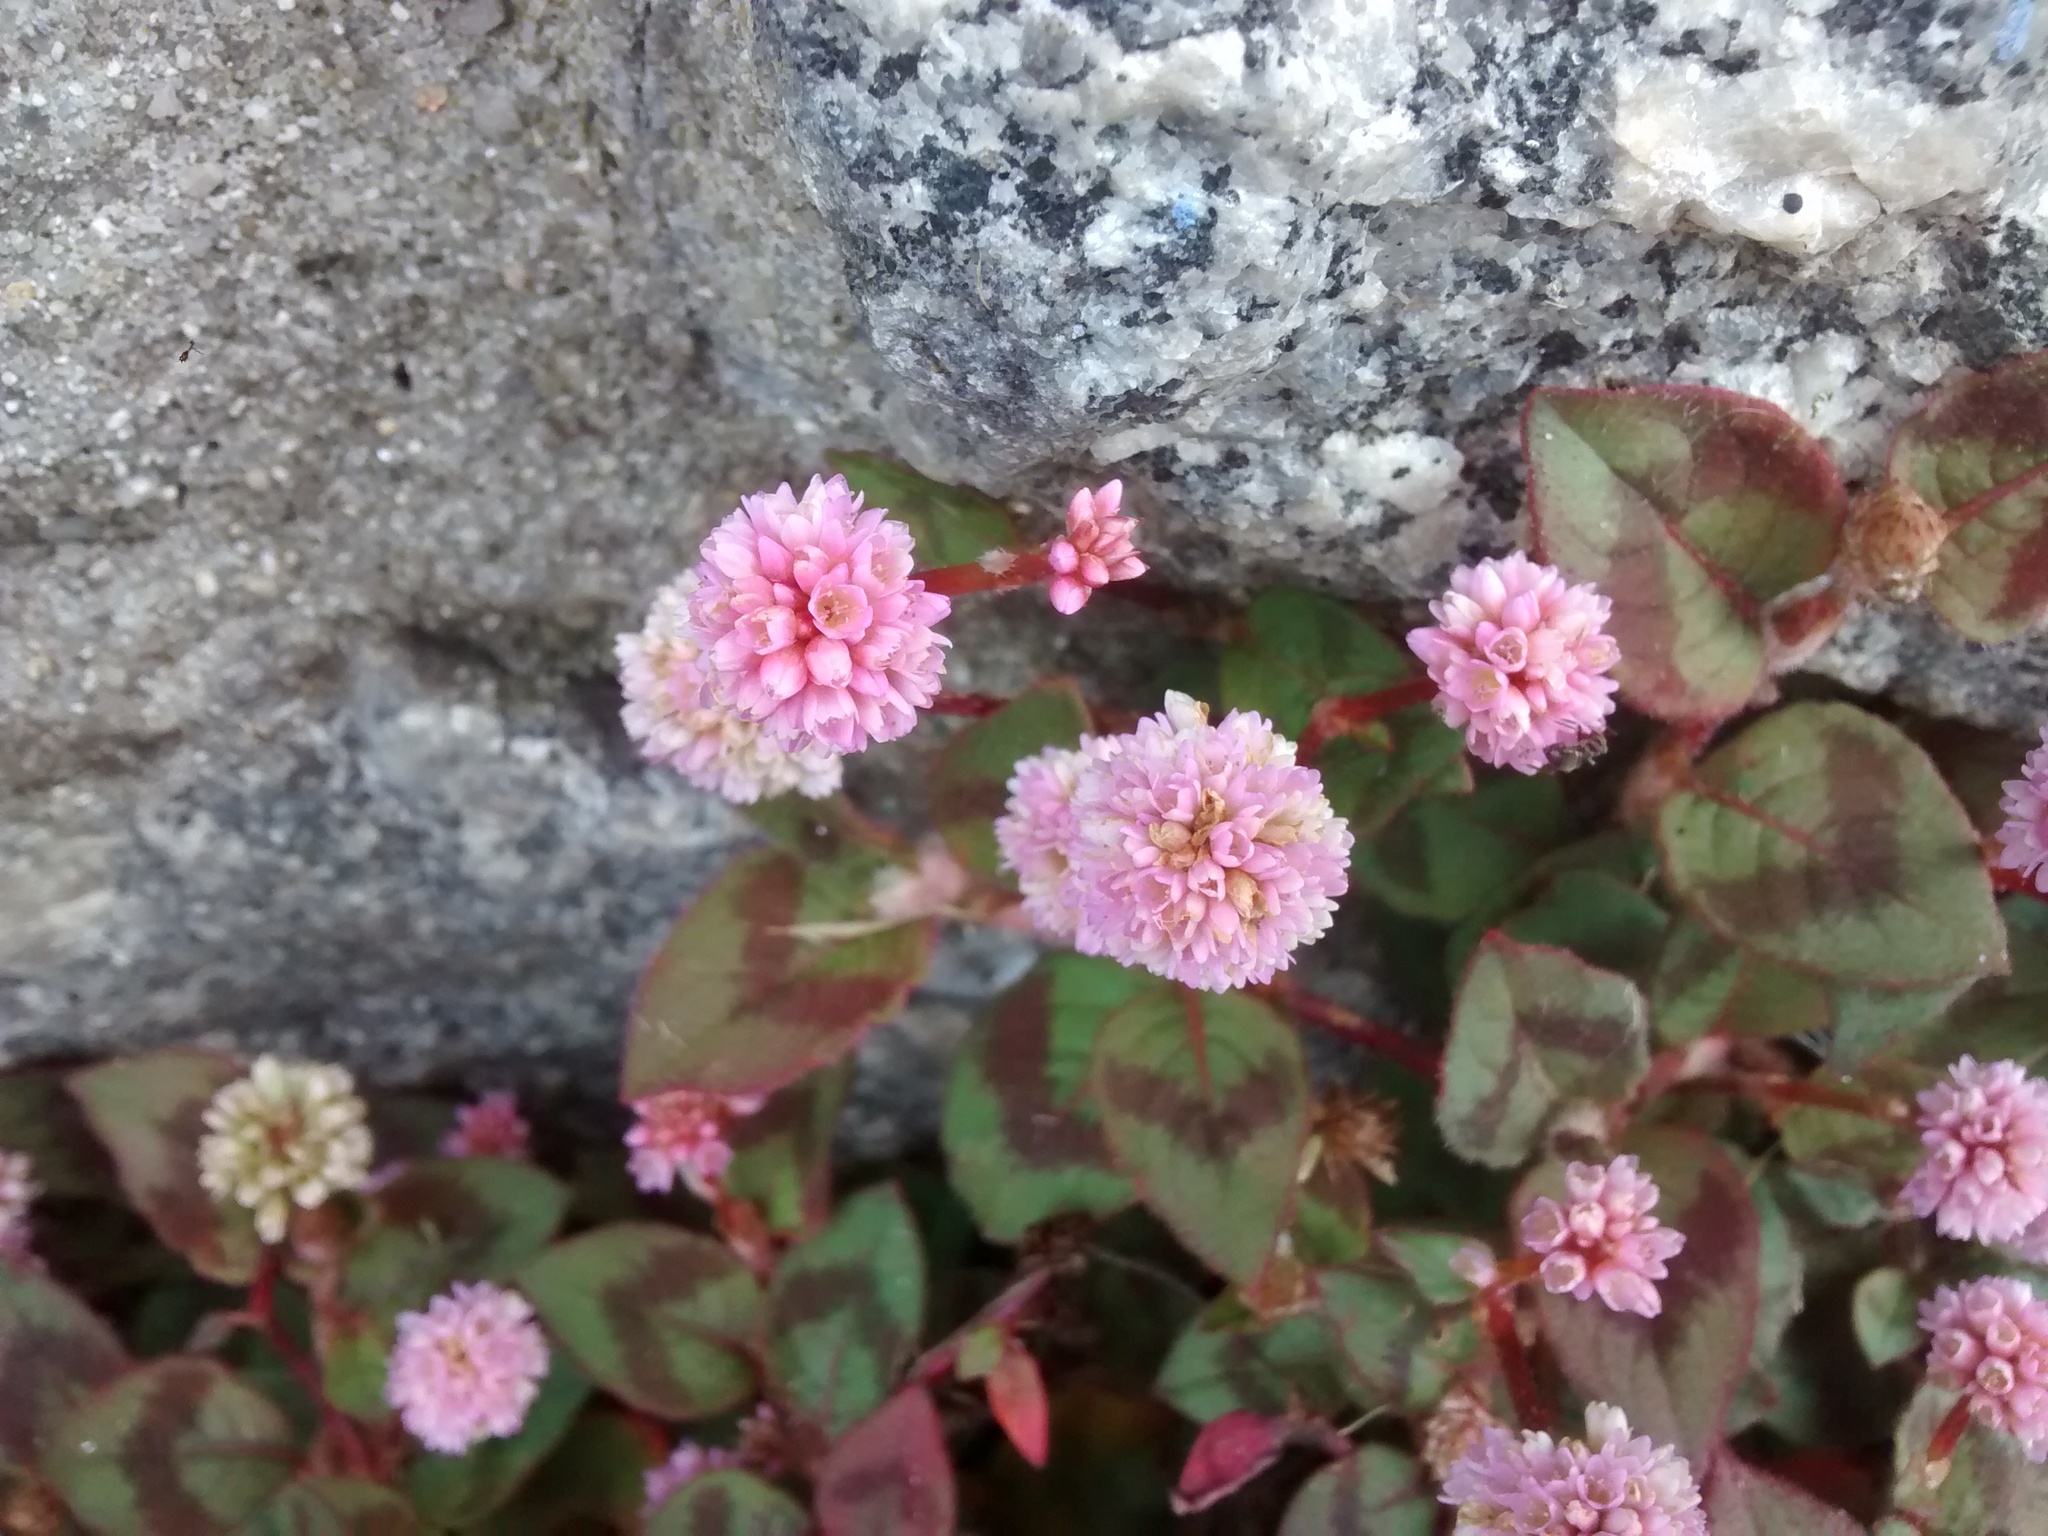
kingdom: Plantae
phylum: Tracheophyta
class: Magnoliopsida
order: Caryophyllales
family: Polygonaceae
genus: Persicaria
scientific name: Persicaria capitata
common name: Pinkhead smartweed
